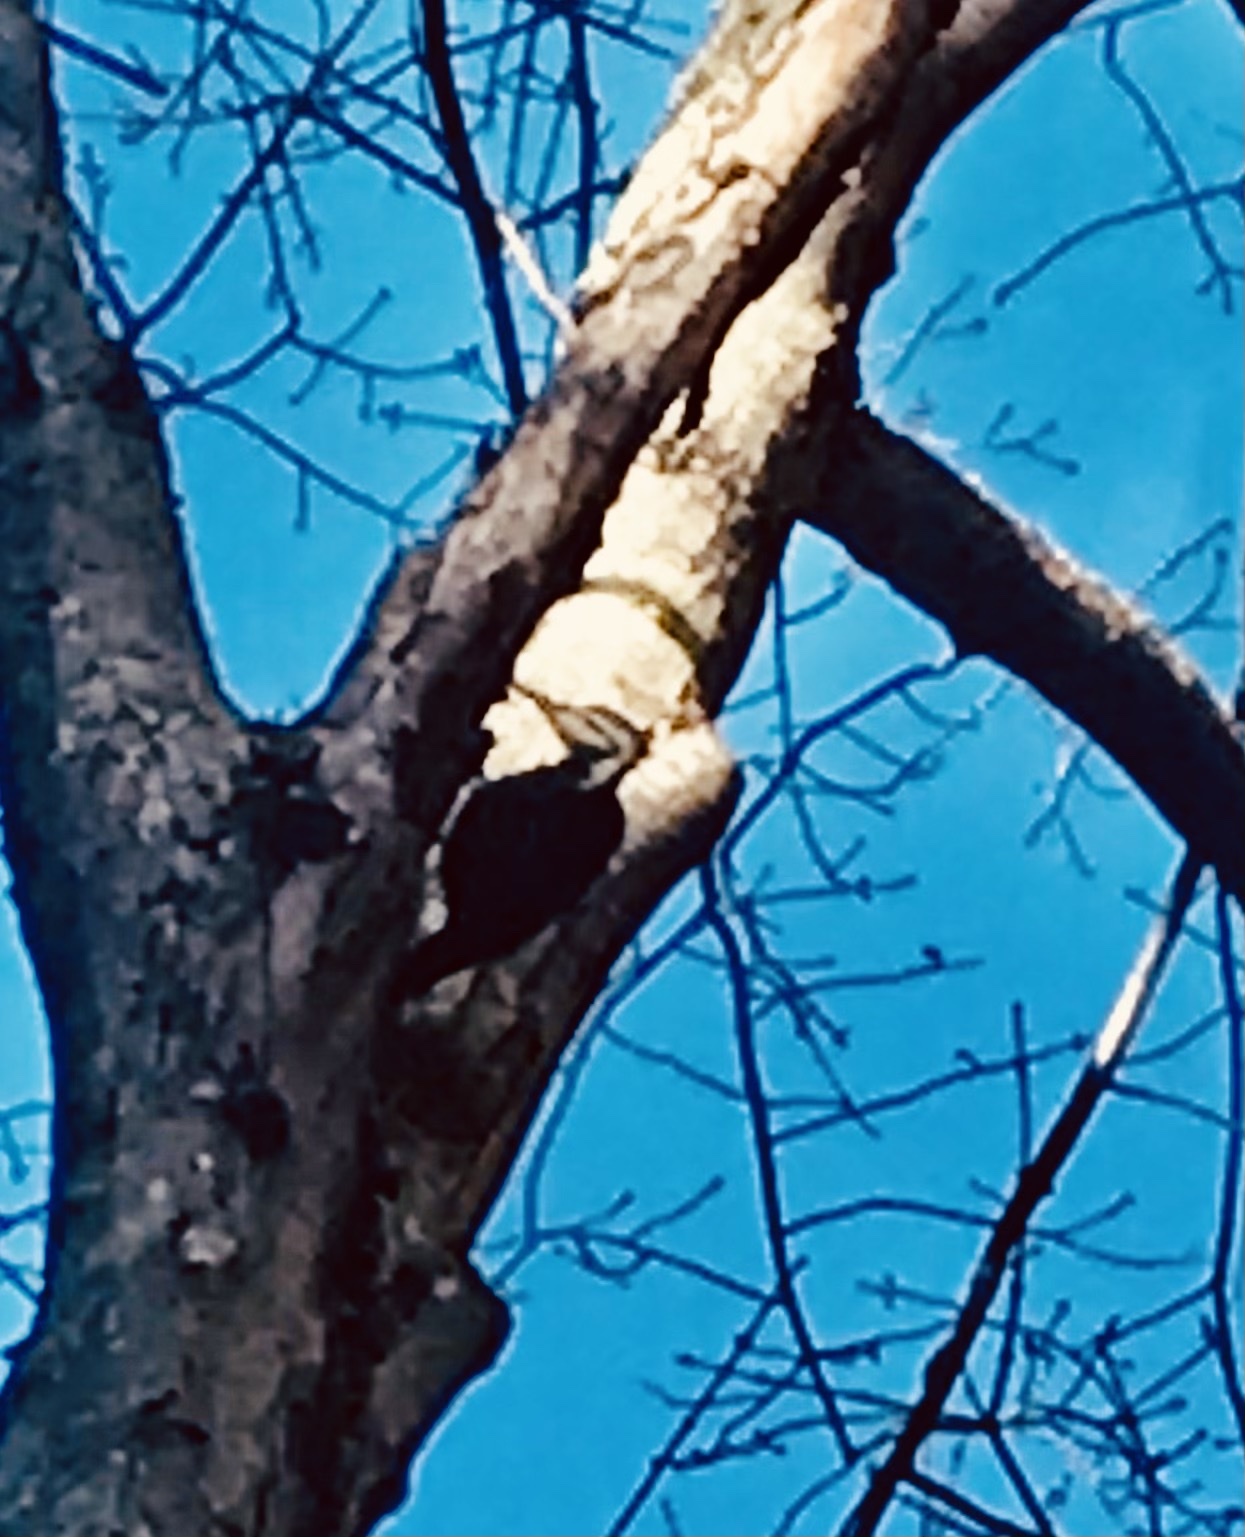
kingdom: Animalia
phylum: Chordata
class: Aves
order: Piciformes
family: Picidae
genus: Dryocopus
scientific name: Dryocopus pileatus
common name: Pileated woodpecker
